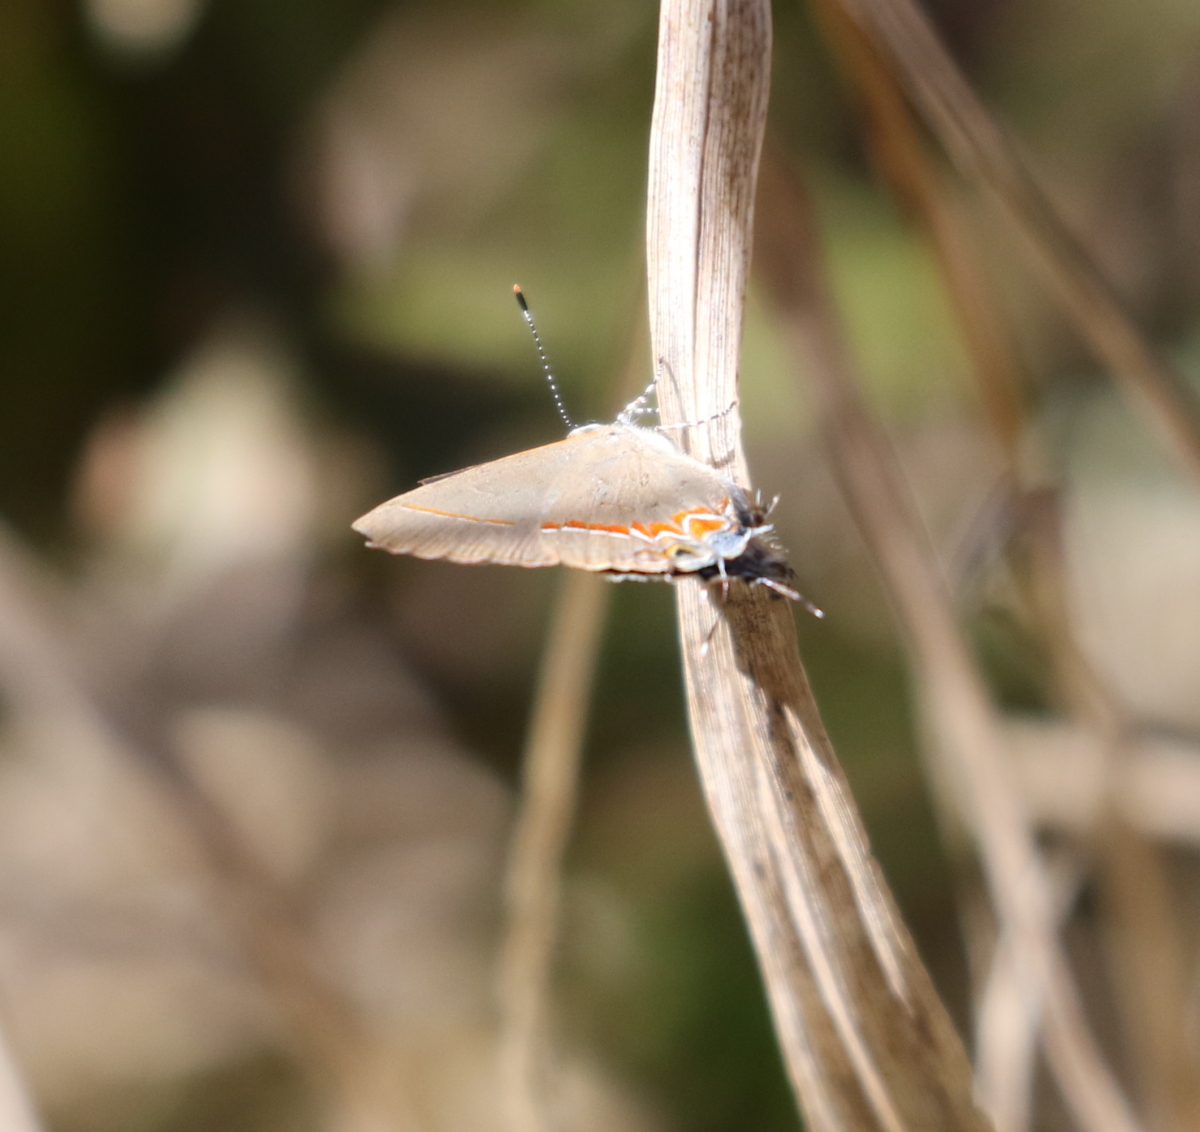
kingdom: Animalia
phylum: Arthropoda
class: Insecta
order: Lepidoptera
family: Lycaenidae
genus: Calycopis
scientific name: Calycopis isobeon
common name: Dusky-blue groundstreak
